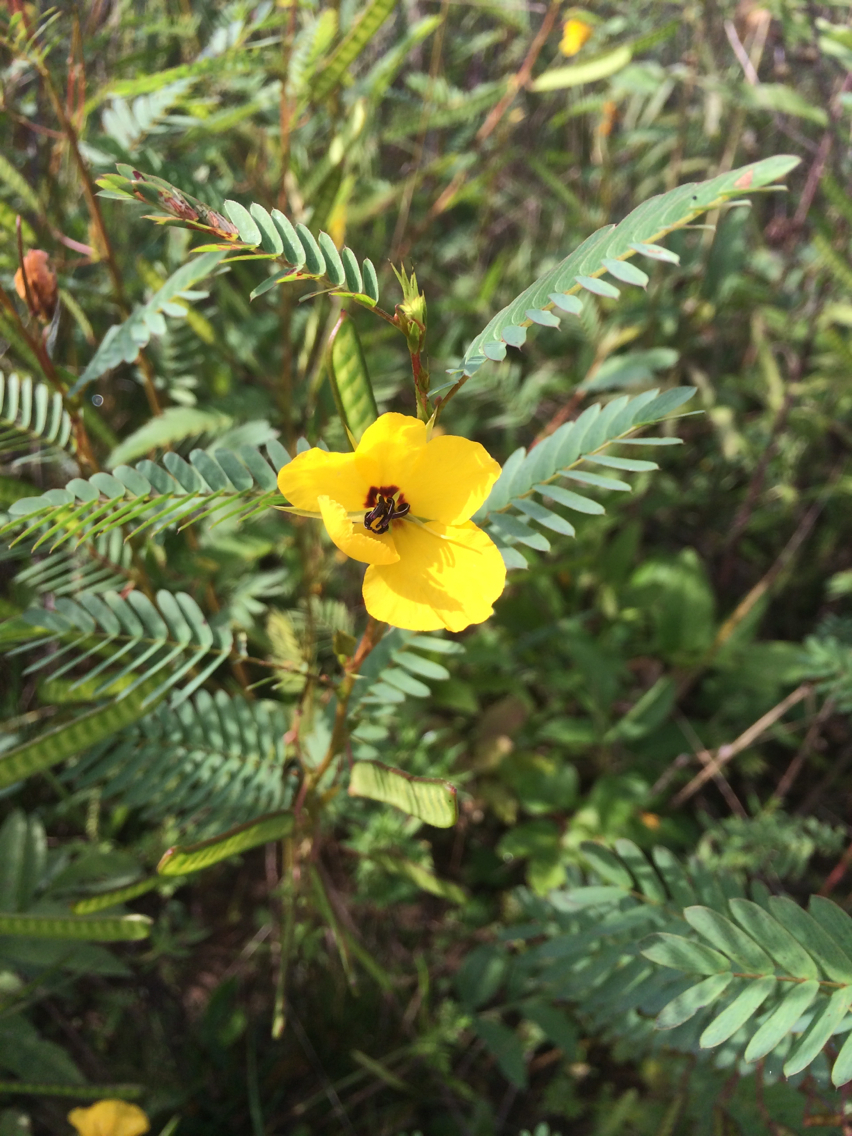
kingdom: Plantae
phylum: Tracheophyta
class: Magnoliopsida
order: Fabales
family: Fabaceae
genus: Chamaecrista
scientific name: Chamaecrista fasciculata
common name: Golden cassia
